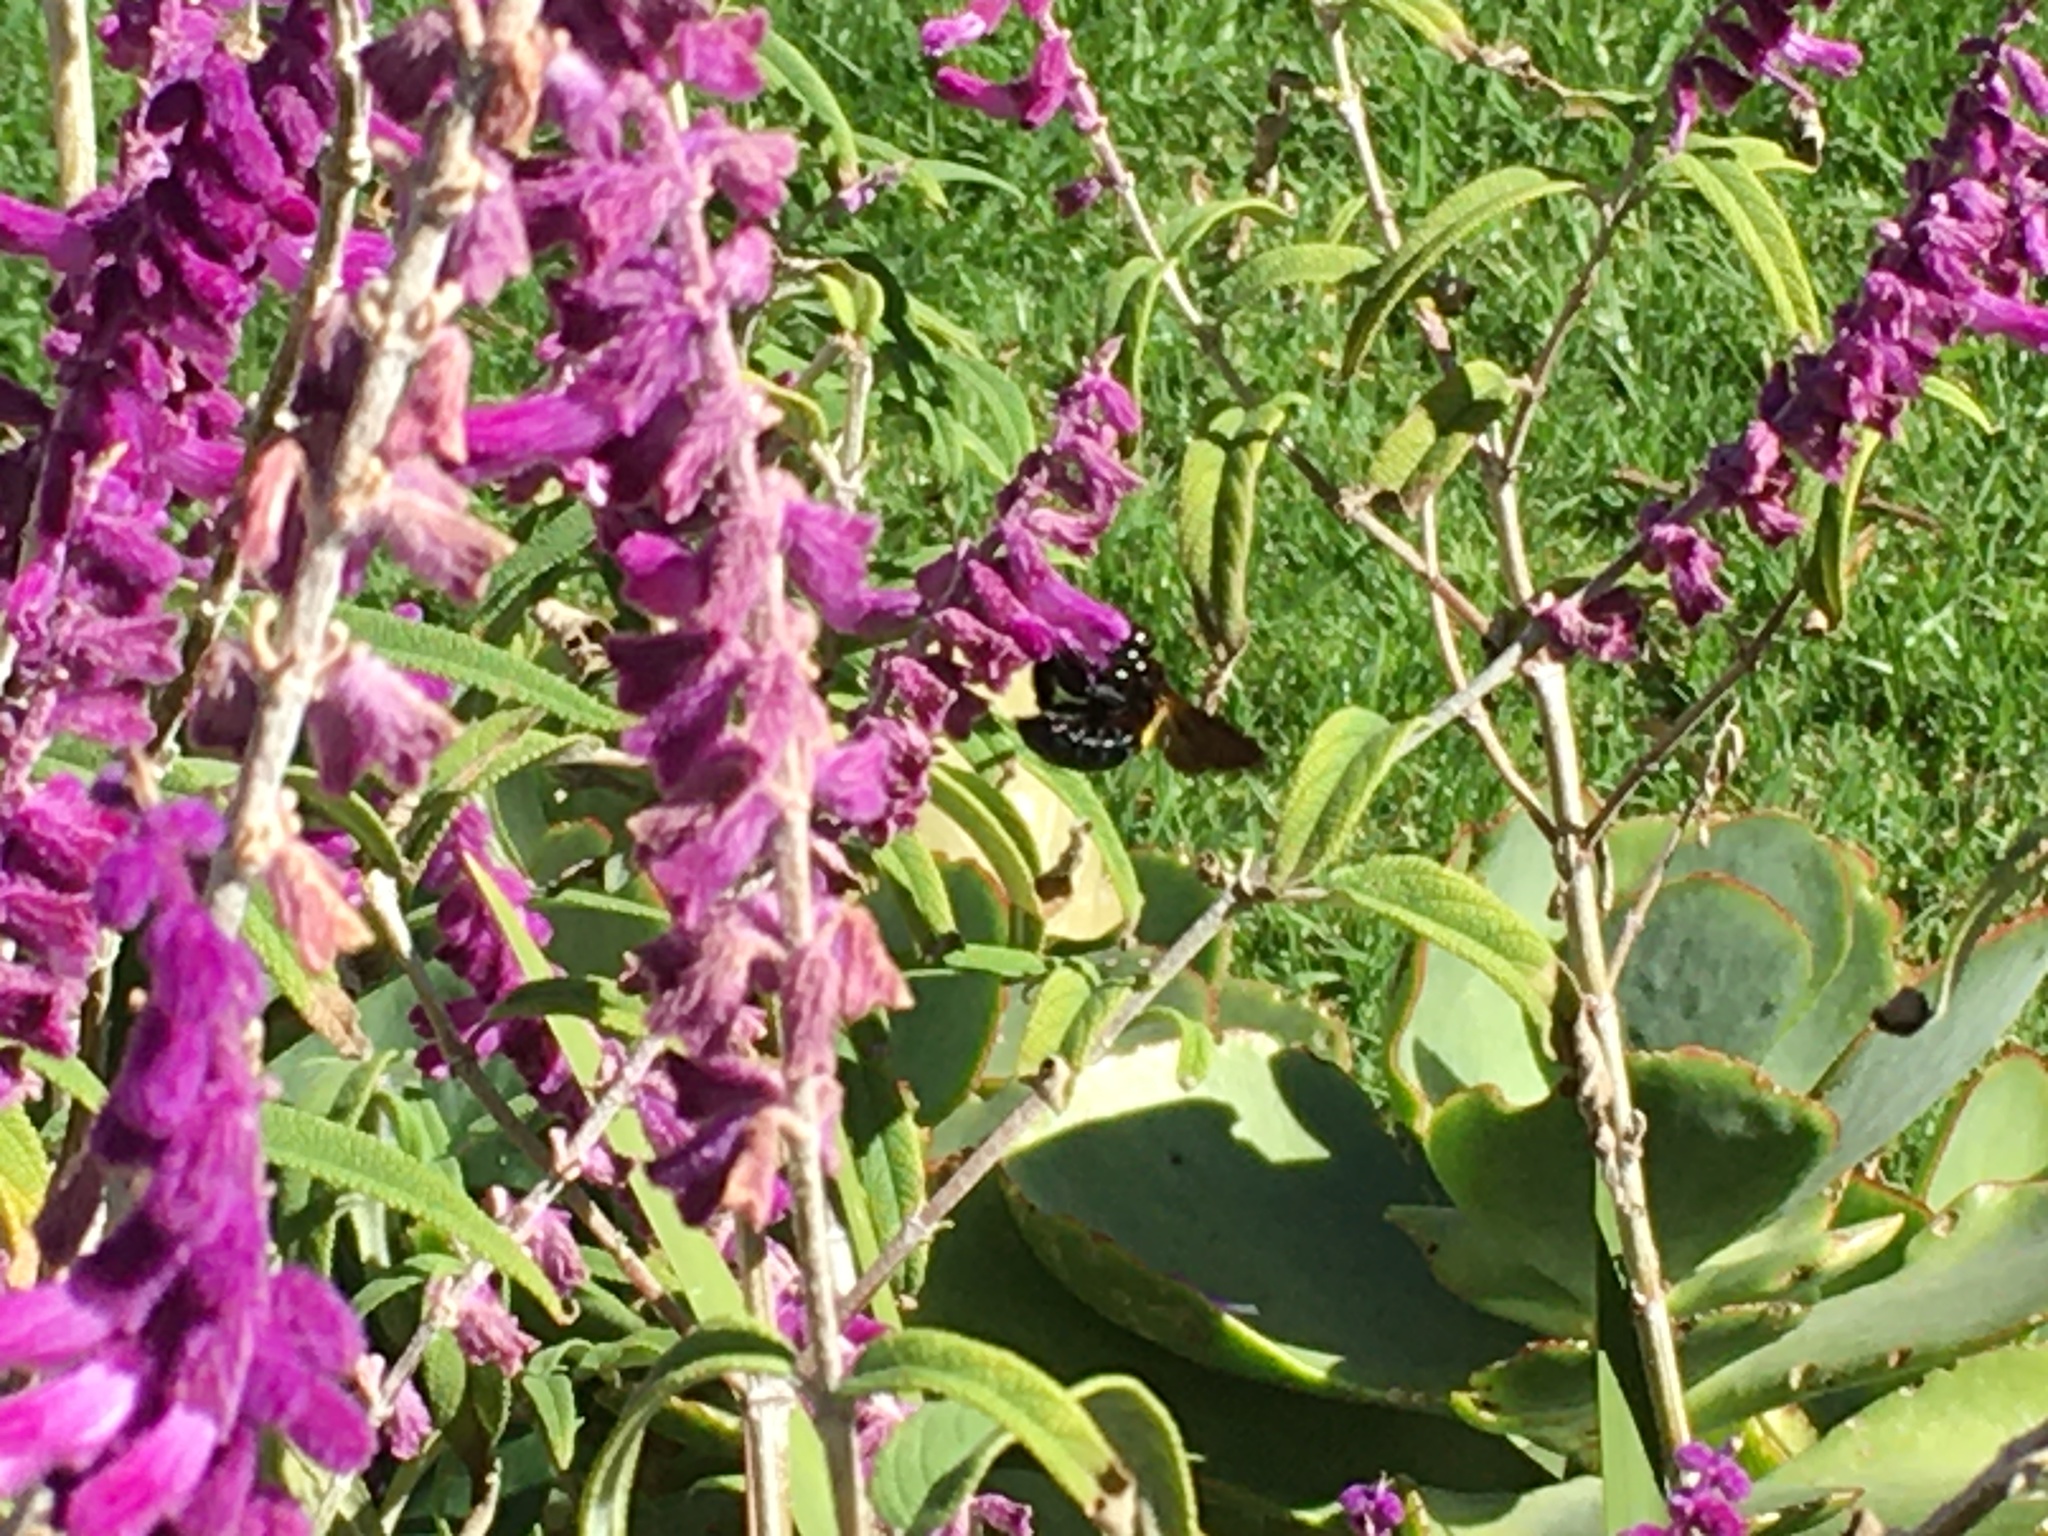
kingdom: Animalia
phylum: Arthropoda
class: Insecta
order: Hymenoptera
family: Apidae
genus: Xylocopa
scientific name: Xylocopa caffra
